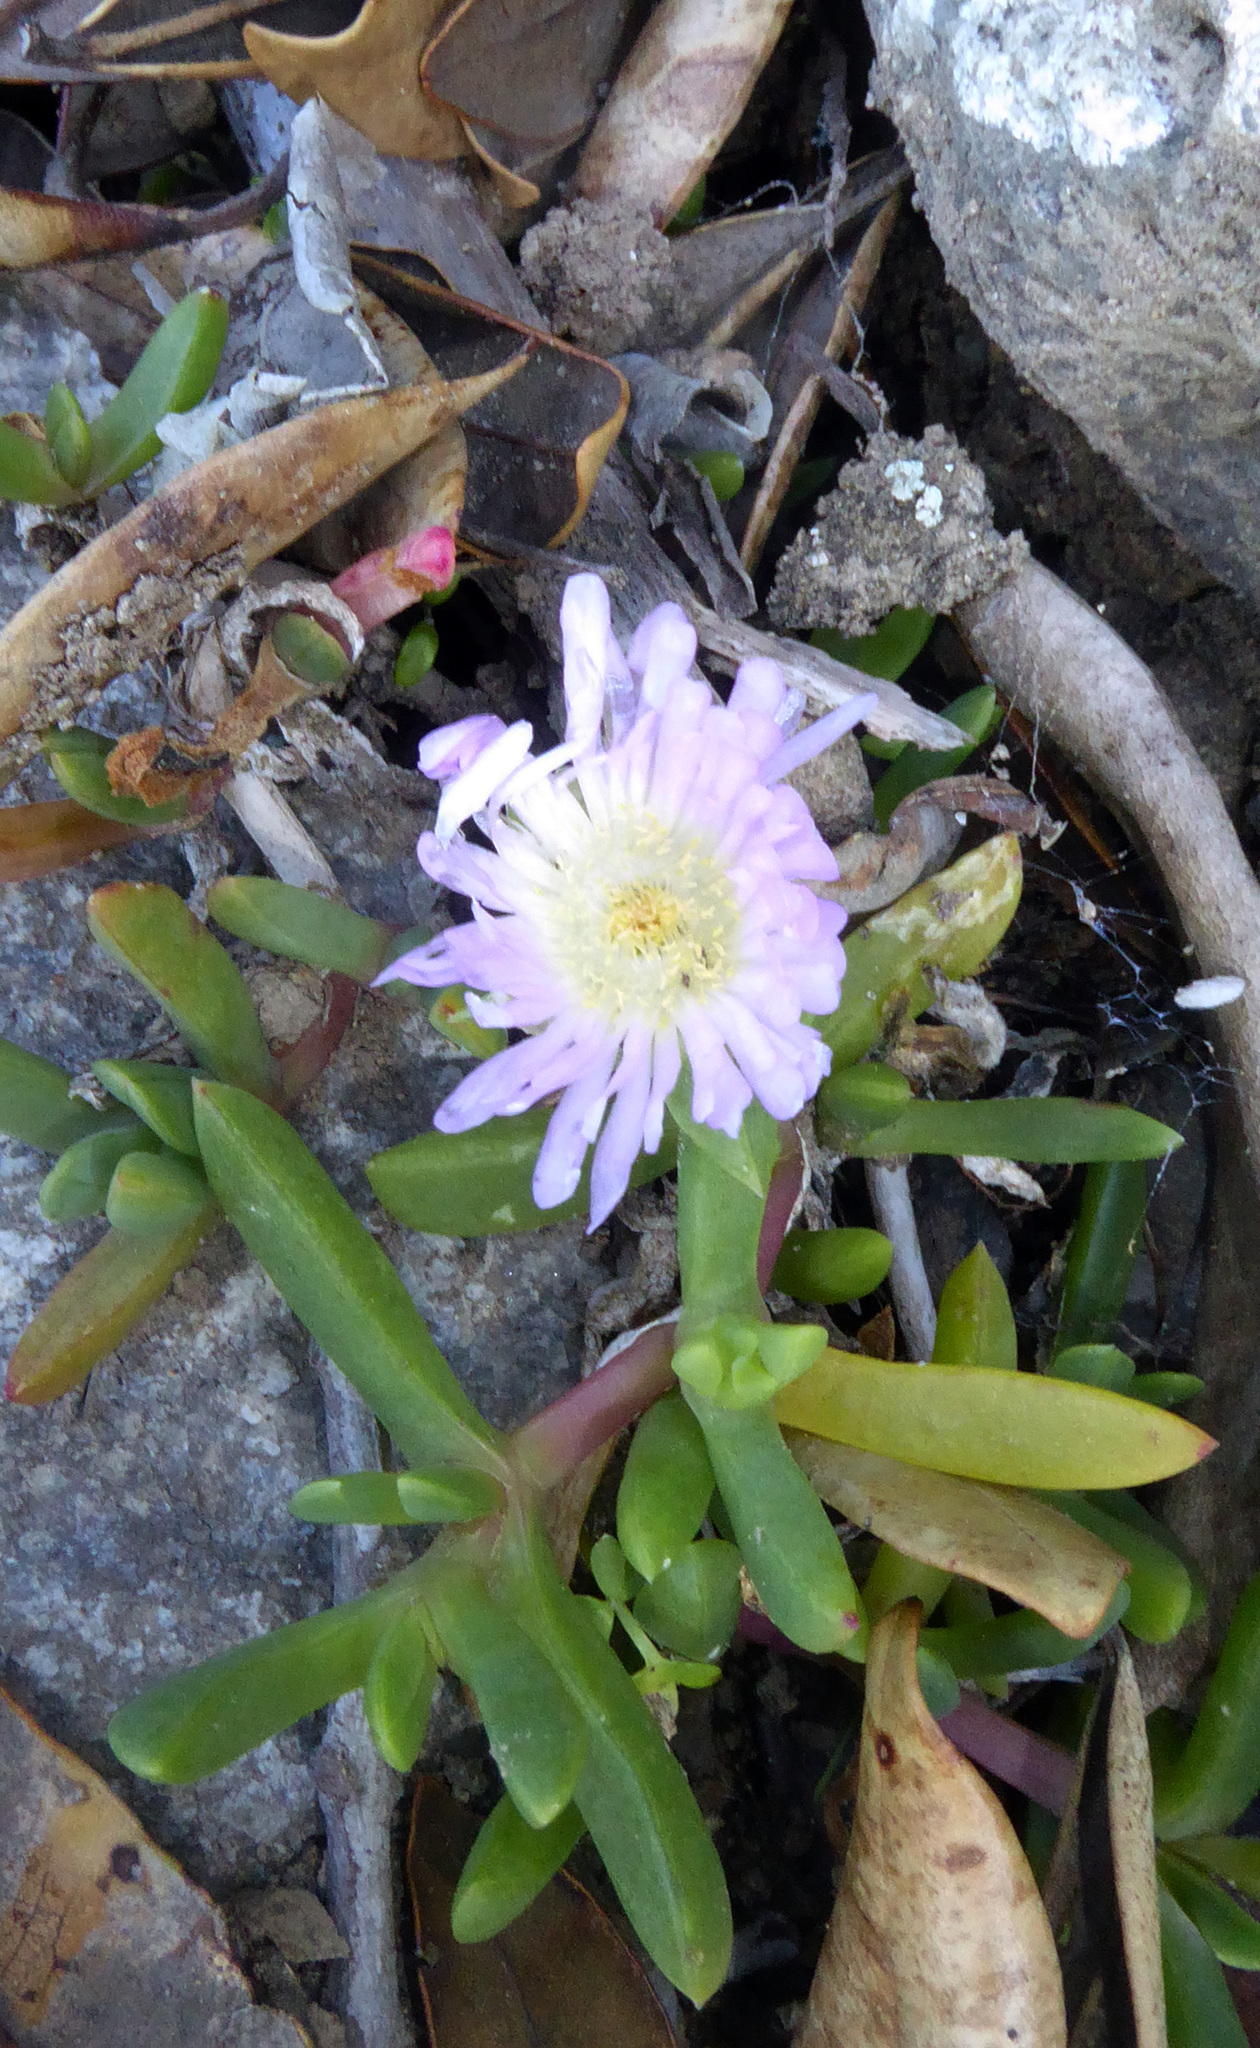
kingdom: Plantae
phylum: Tracheophyta
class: Magnoliopsida
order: Caryophyllales
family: Aizoaceae
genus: Disphyma
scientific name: Disphyma australe
